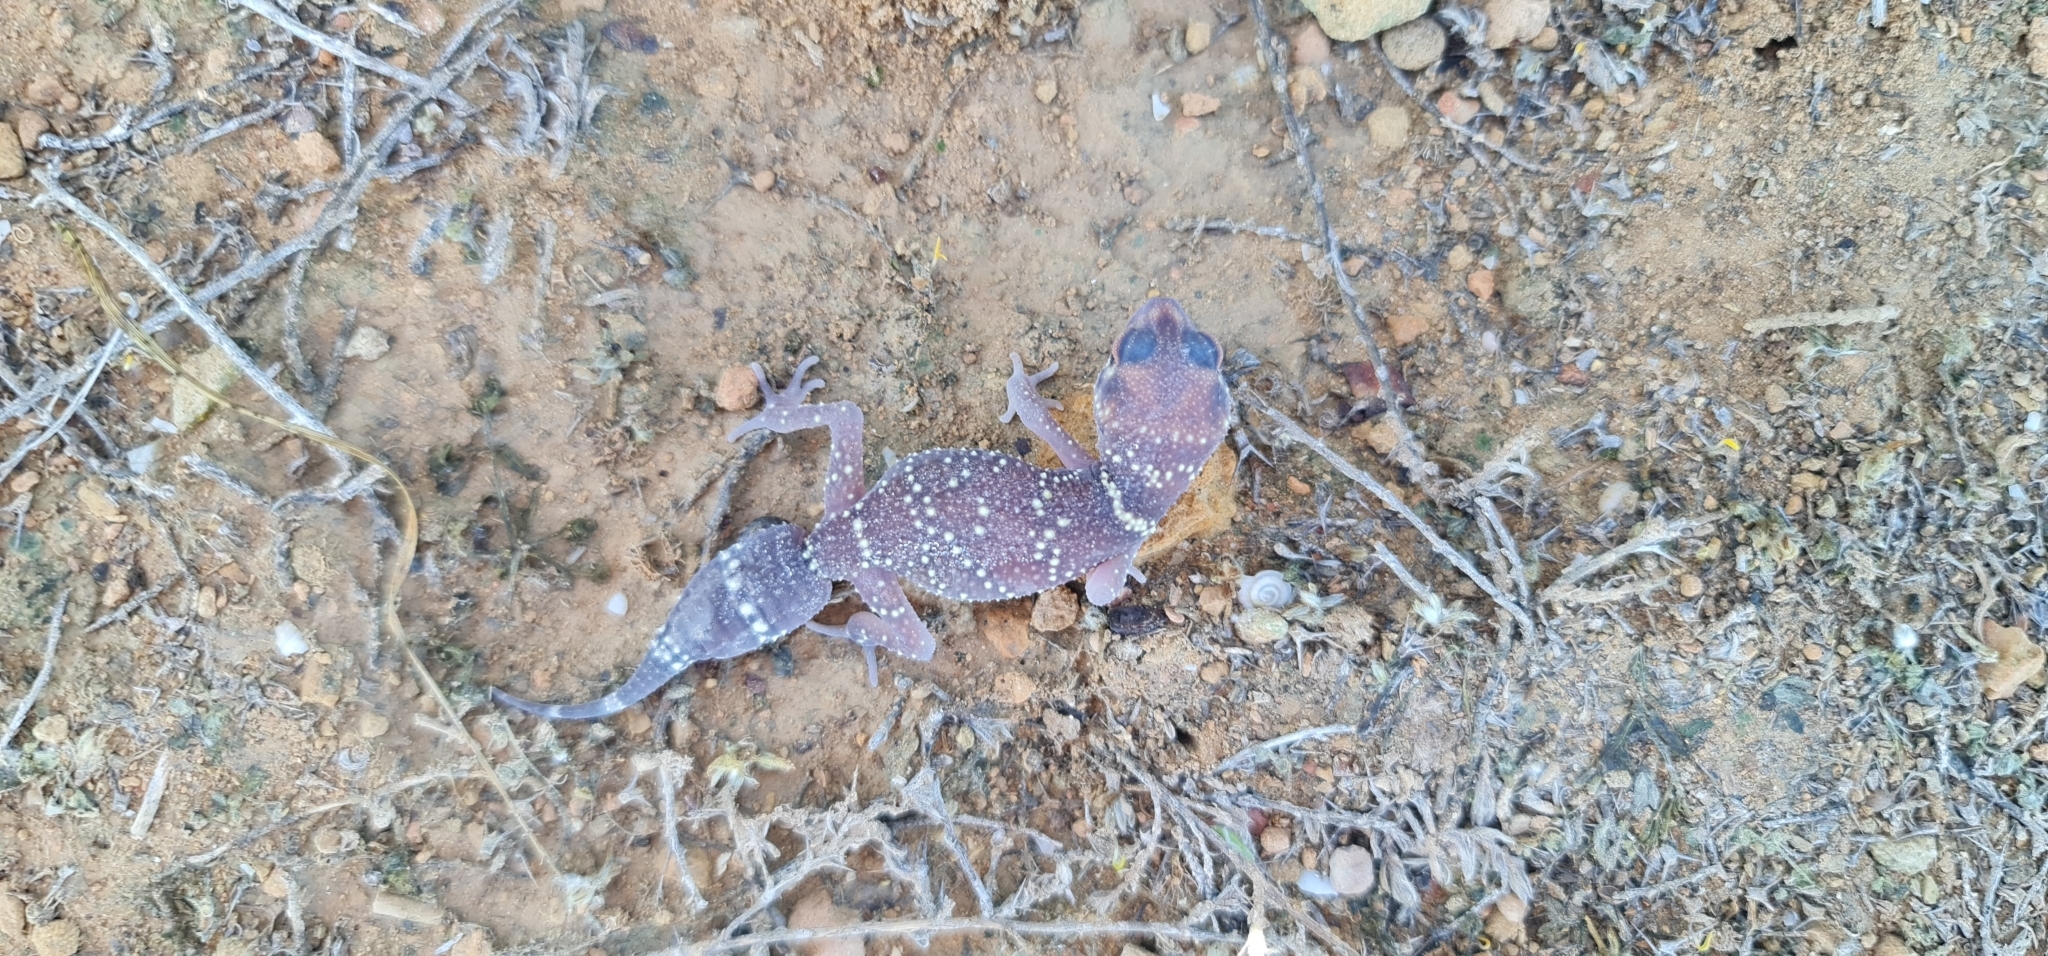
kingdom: Animalia
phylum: Chordata
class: Squamata
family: Carphodactylidae
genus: Underwoodisaurus
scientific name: Underwoodisaurus milii
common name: Barking gecko
